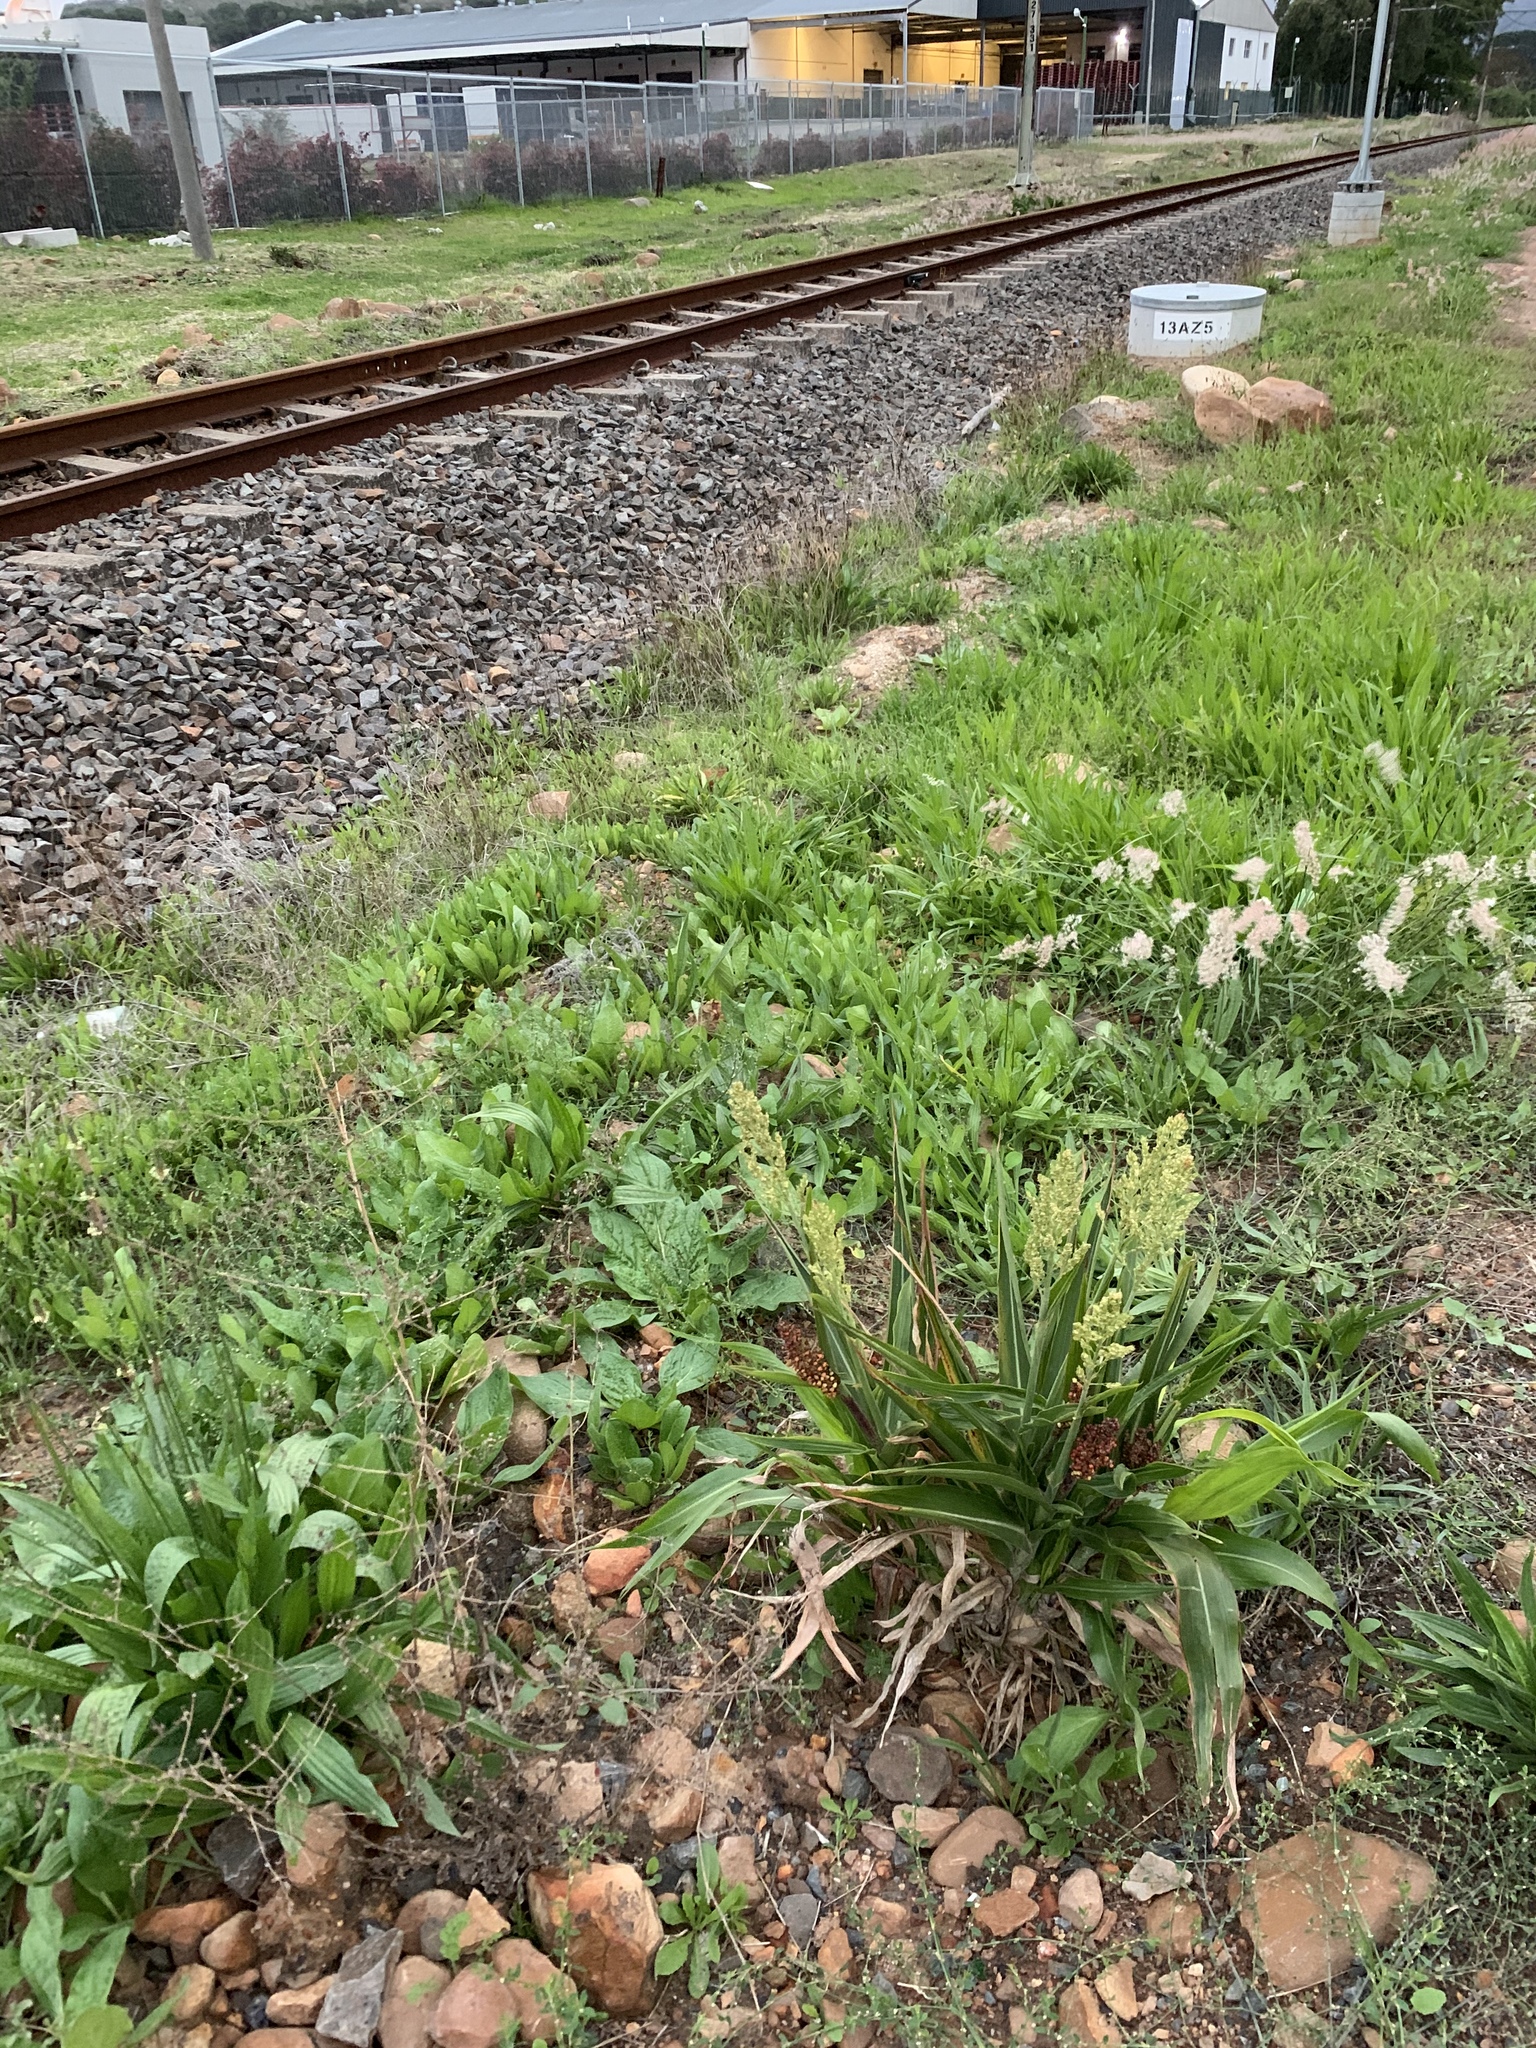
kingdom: Plantae
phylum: Tracheophyta
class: Liliopsida
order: Poales
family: Poaceae
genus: Sorghum
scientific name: Sorghum bicolor
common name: Sorghum
